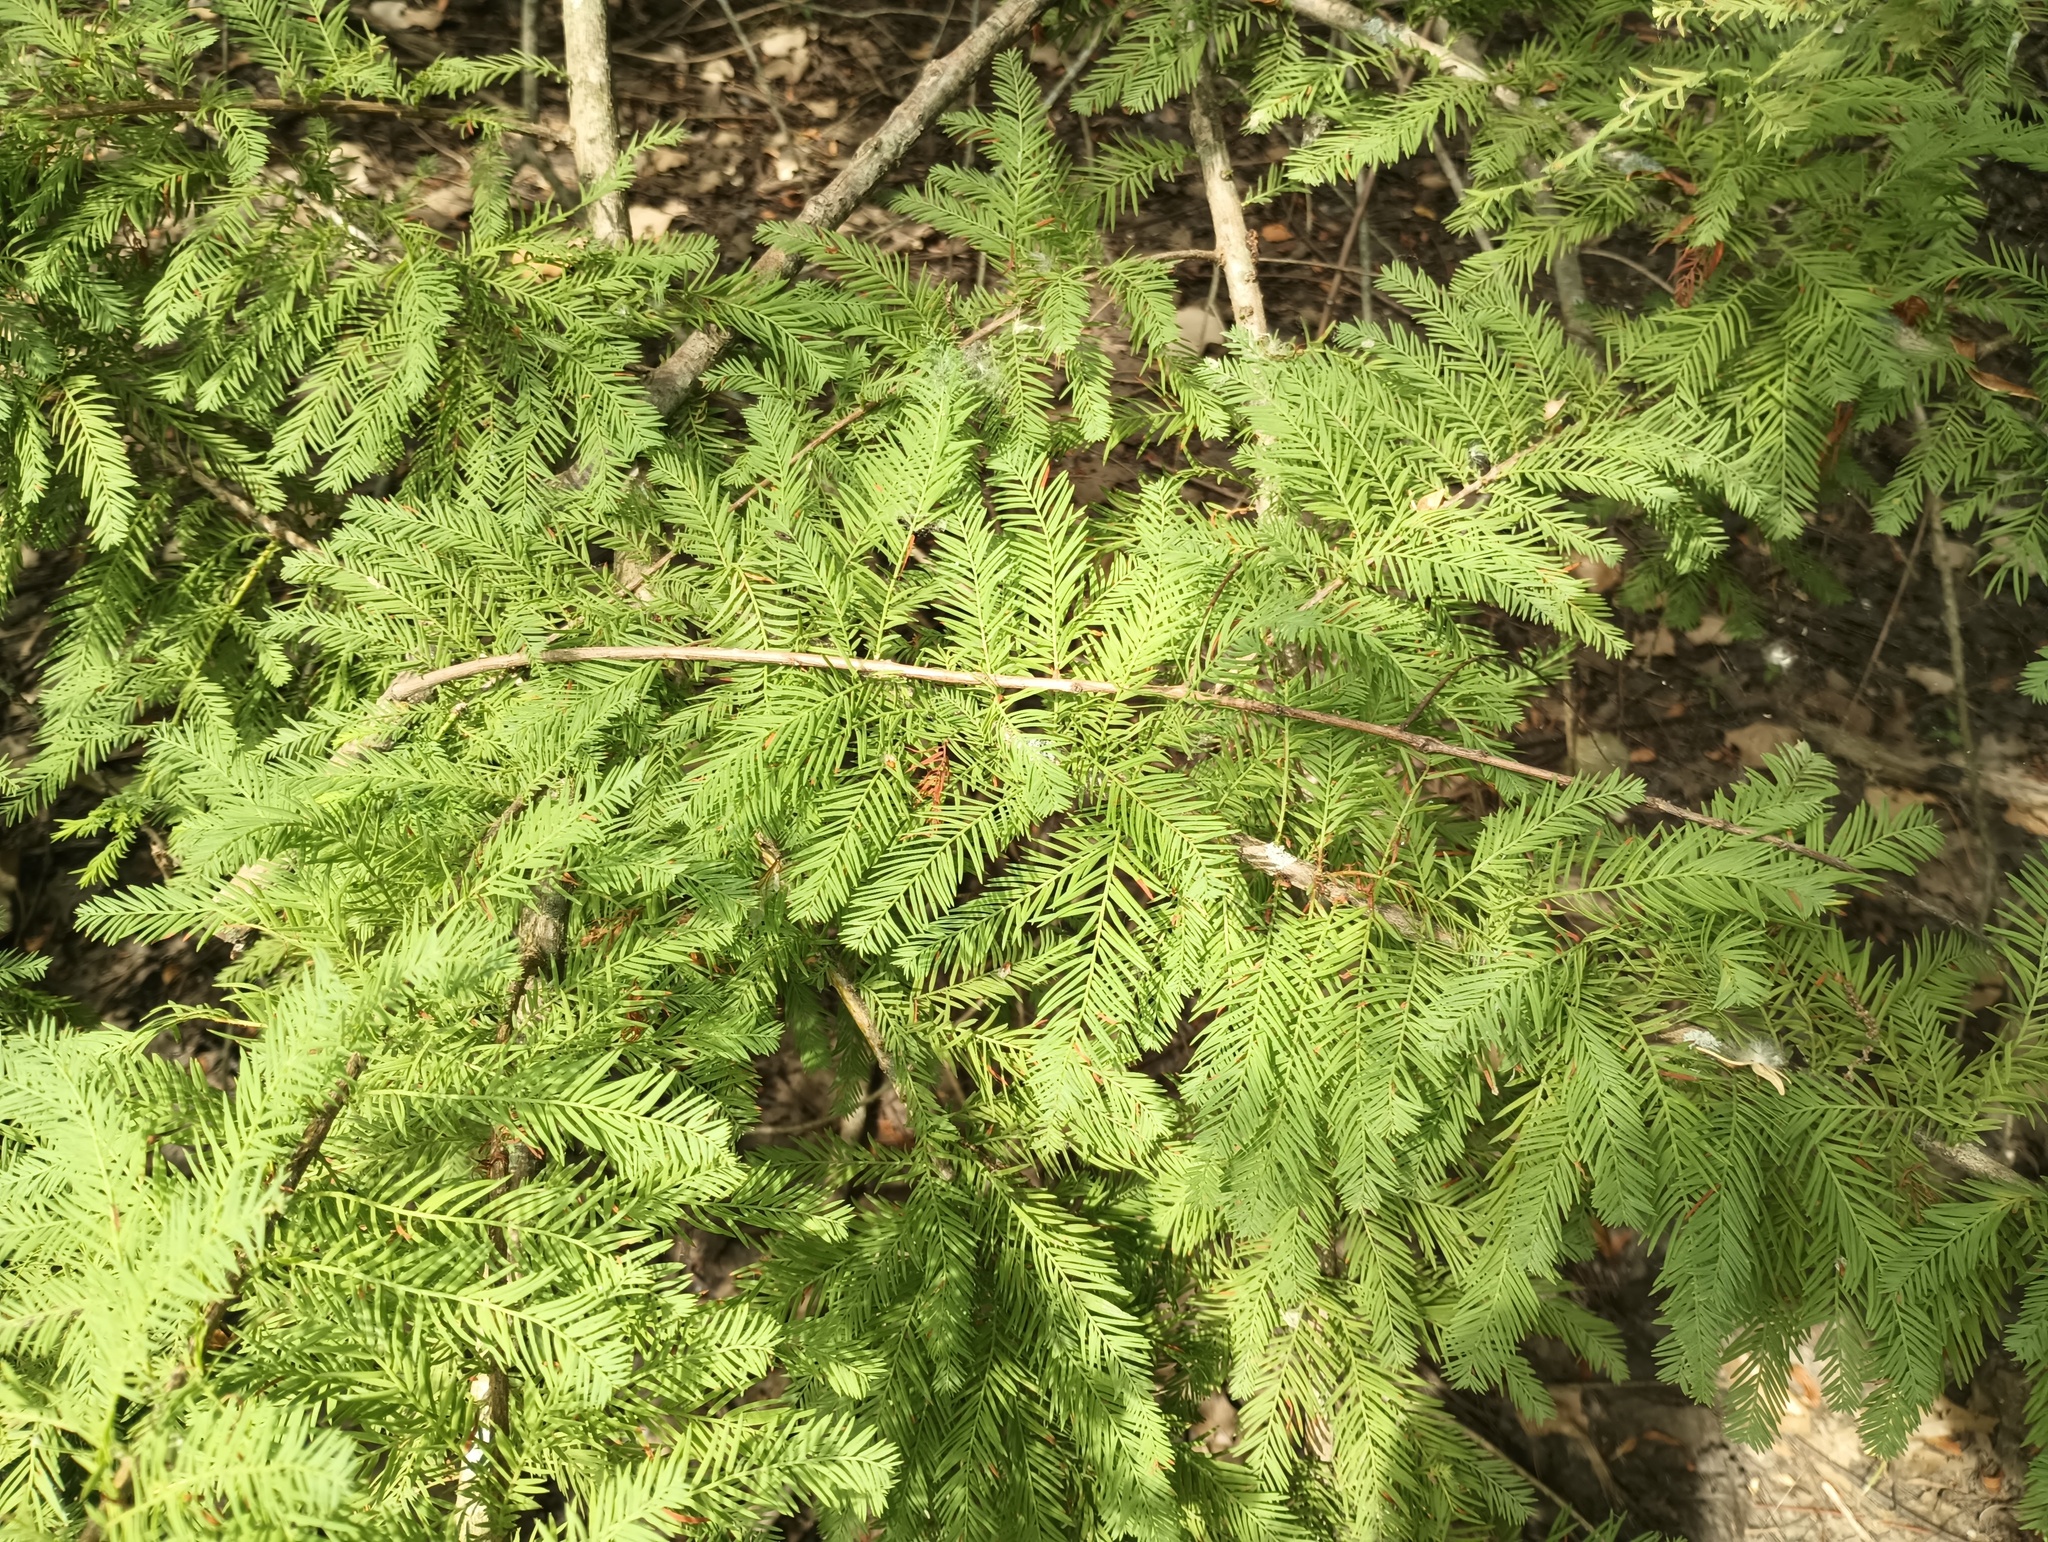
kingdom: Plantae
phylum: Tracheophyta
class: Pinopsida
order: Pinales
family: Cupressaceae
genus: Taxodium
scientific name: Taxodium distichum
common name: Bald cypress
